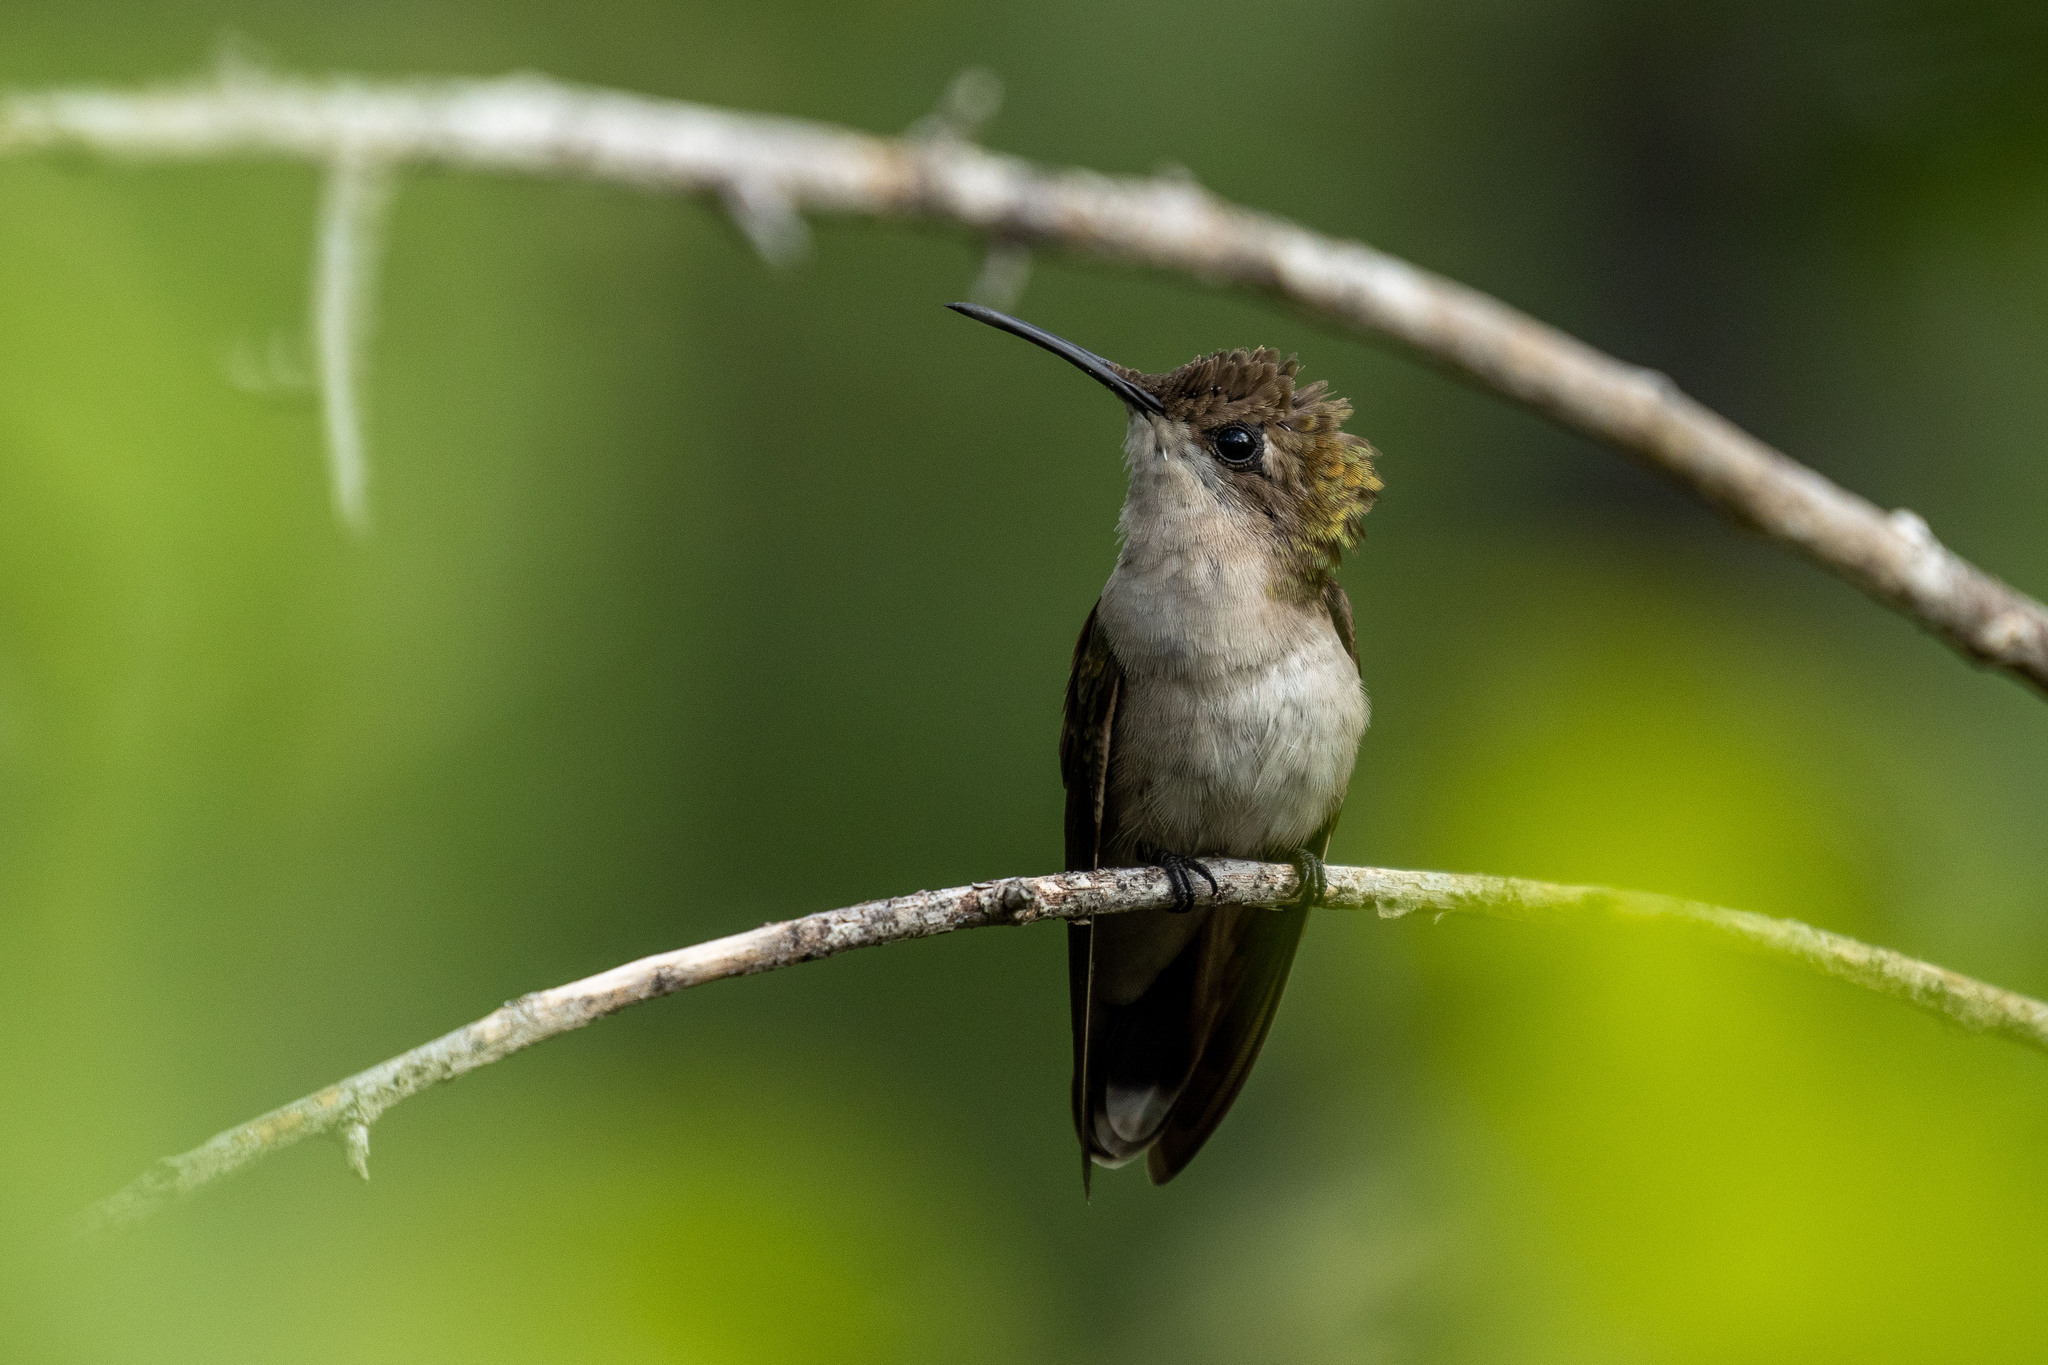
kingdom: Animalia
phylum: Chordata
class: Aves
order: Apodiformes
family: Trochilidae
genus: Chrysolampis
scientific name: Chrysolampis mosquitus
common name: Ruby-topaz hummingbird
